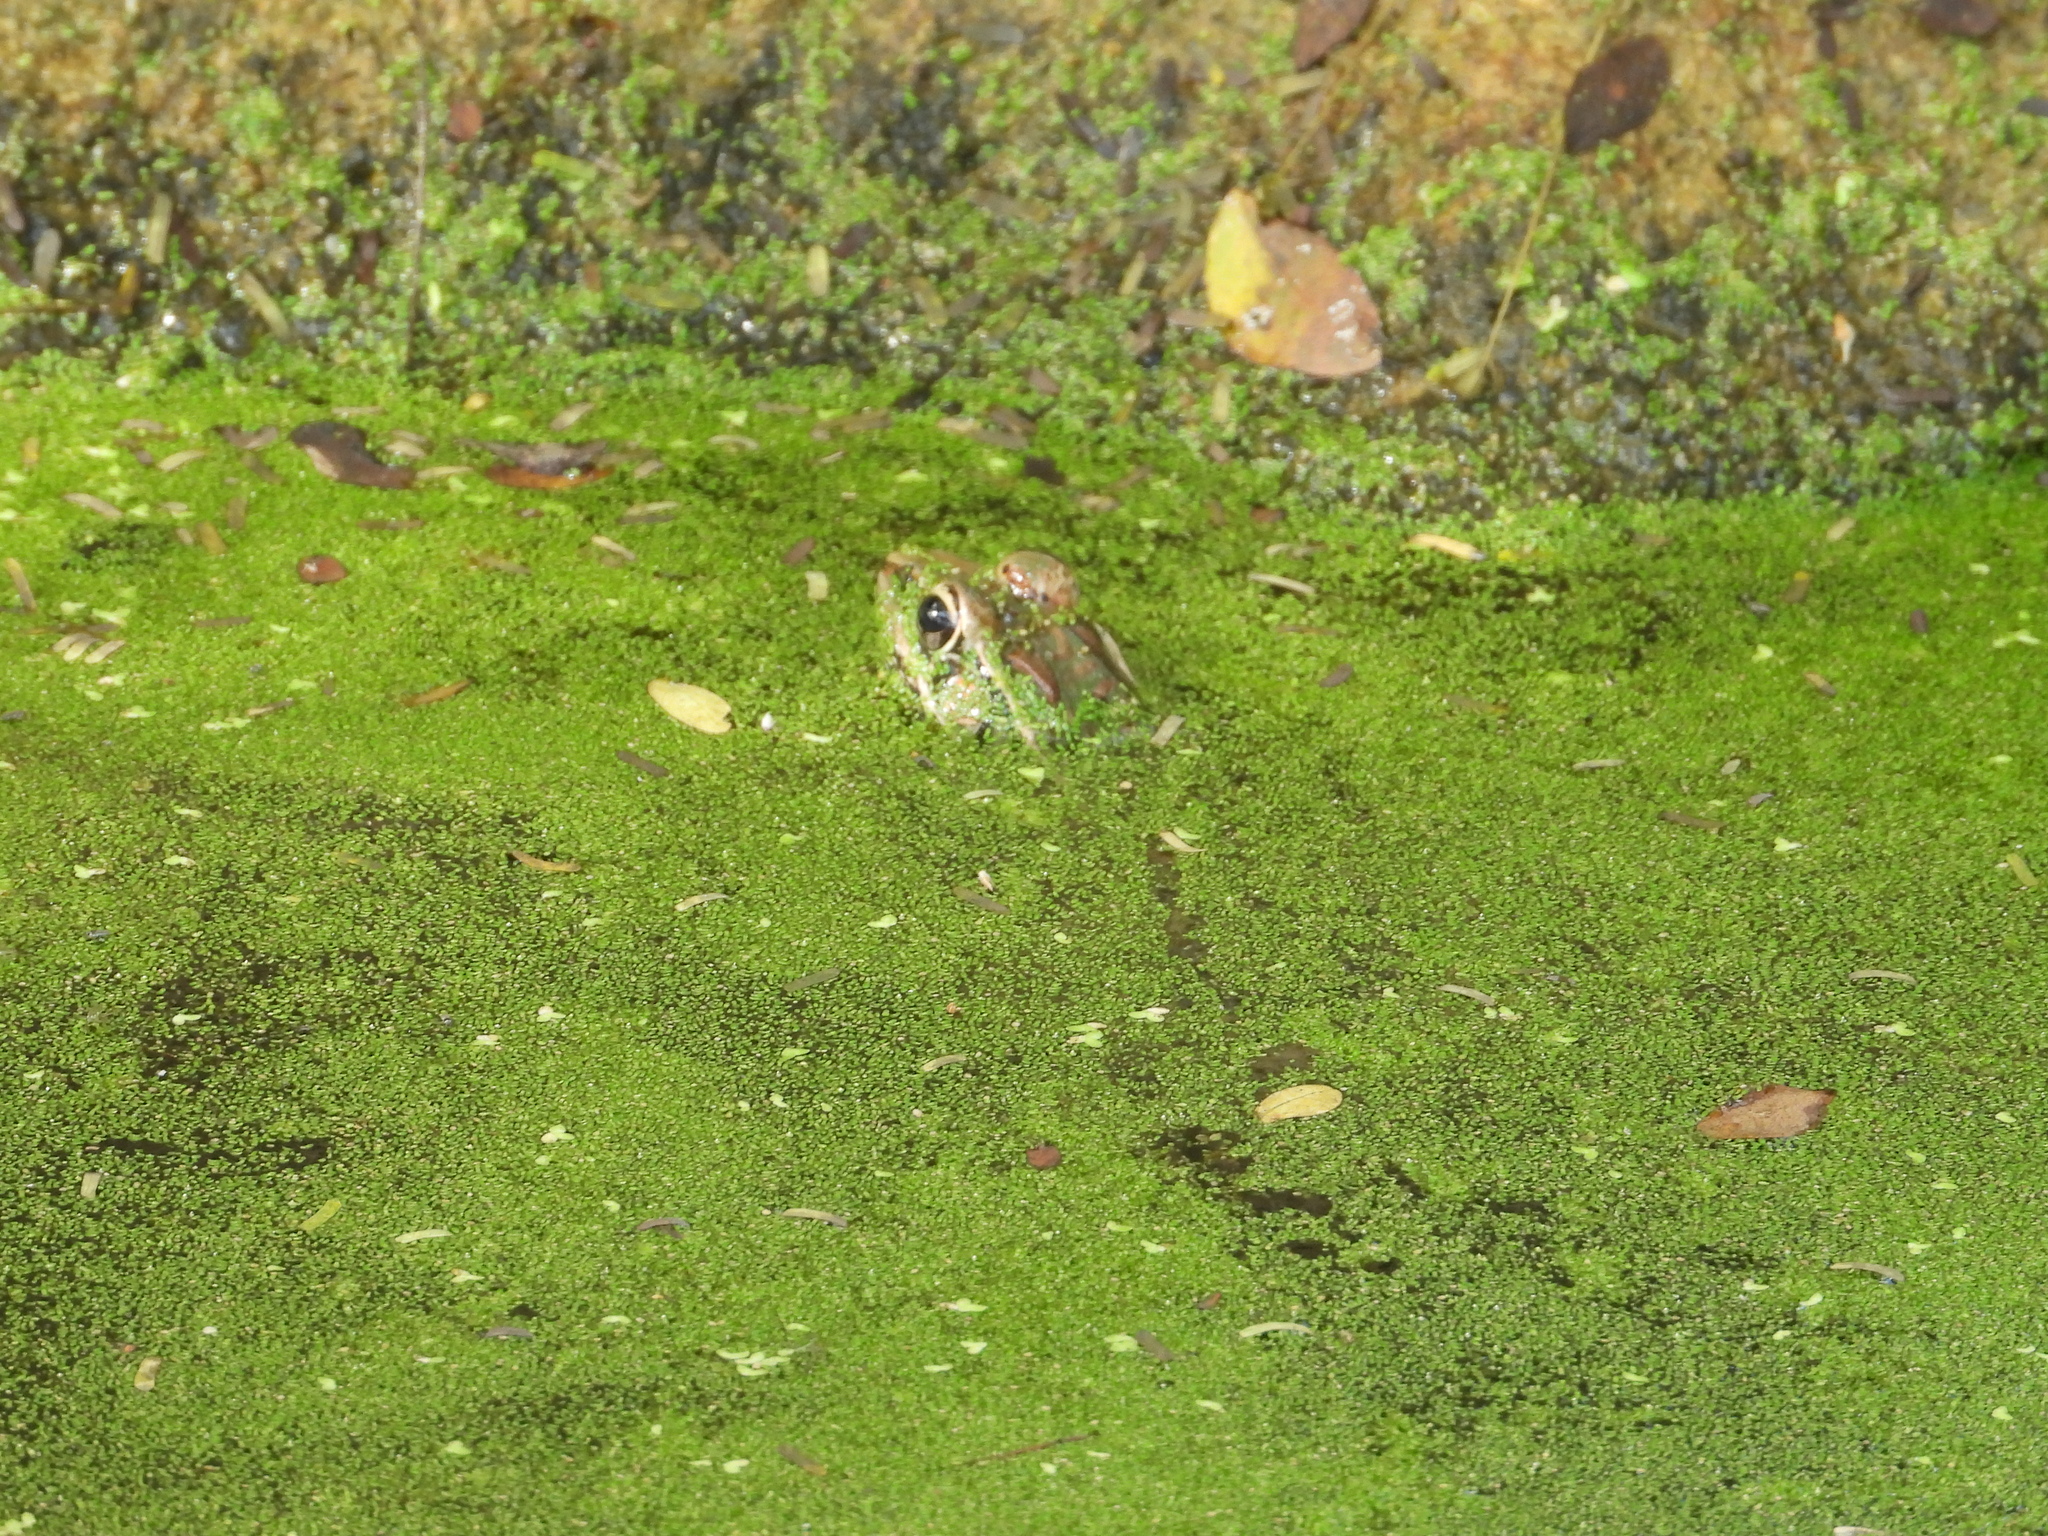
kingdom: Animalia
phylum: Chordata
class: Amphibia
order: Anura
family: Ranidae
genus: Lithobates
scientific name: Lithobates brownorum
